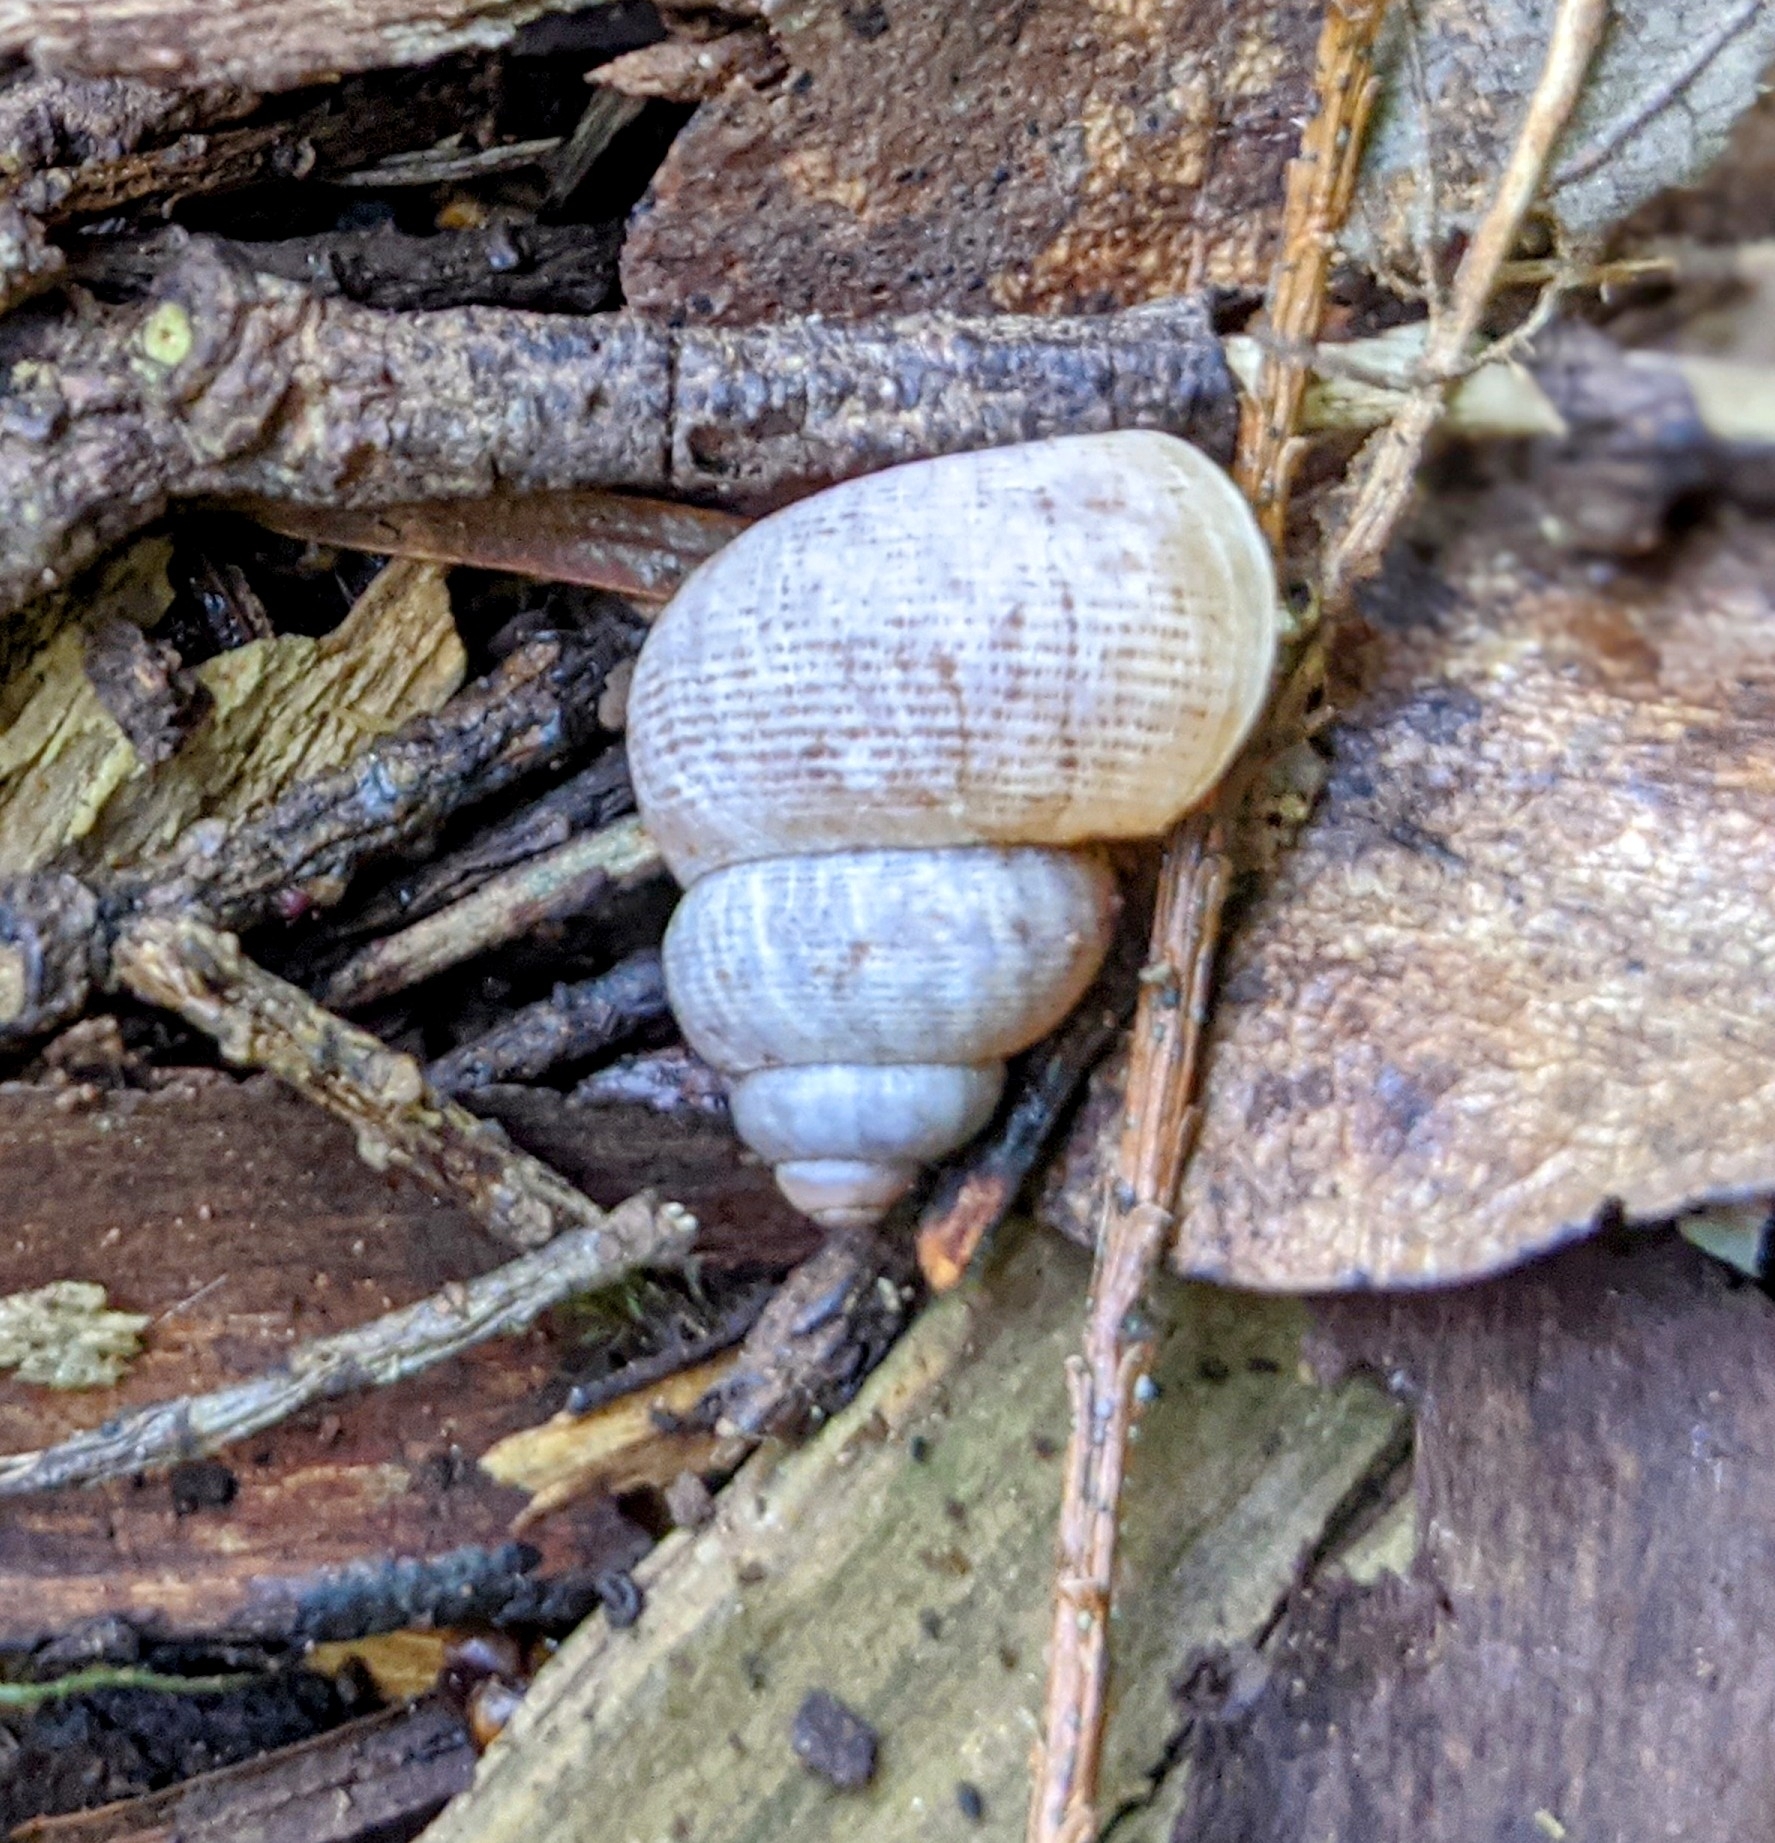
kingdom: Animalia
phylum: Mollusca
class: Gastropoda
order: Littorinimorpha
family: Pomatiidae
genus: Pomatias
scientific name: Pomatias elegans
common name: Red-mouthed snail
